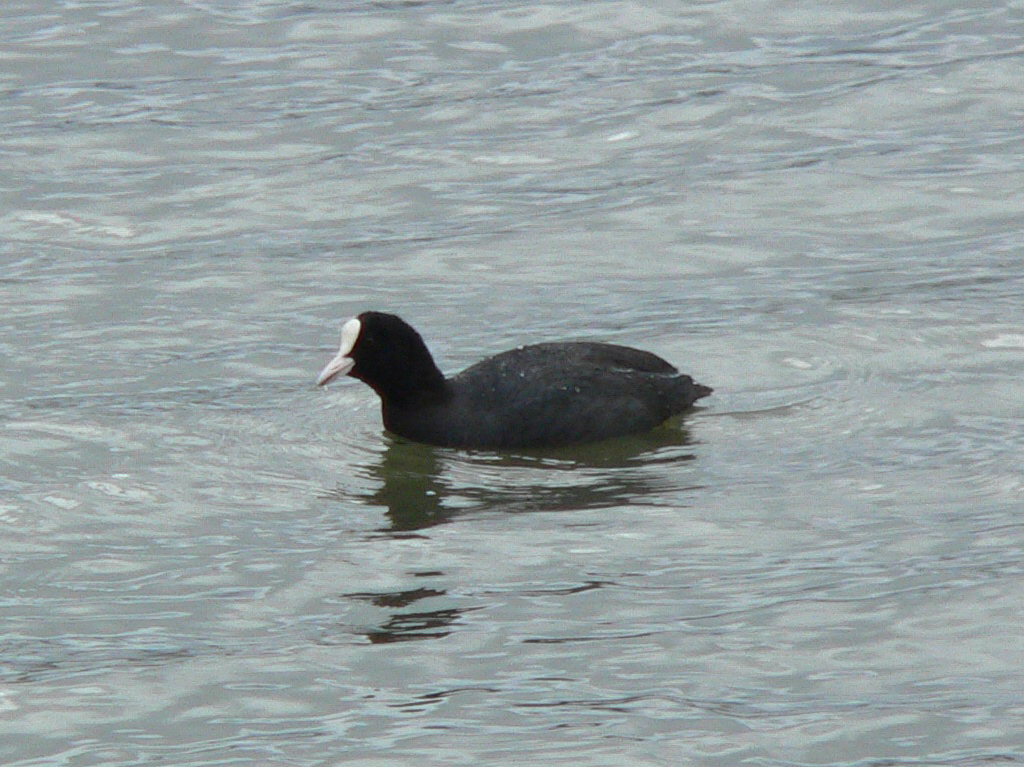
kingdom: Animalia
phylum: Chordata
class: Aves
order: Gruiformes
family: Rallidae
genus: Fulica
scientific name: Fulica atra
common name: Eurasian coot
